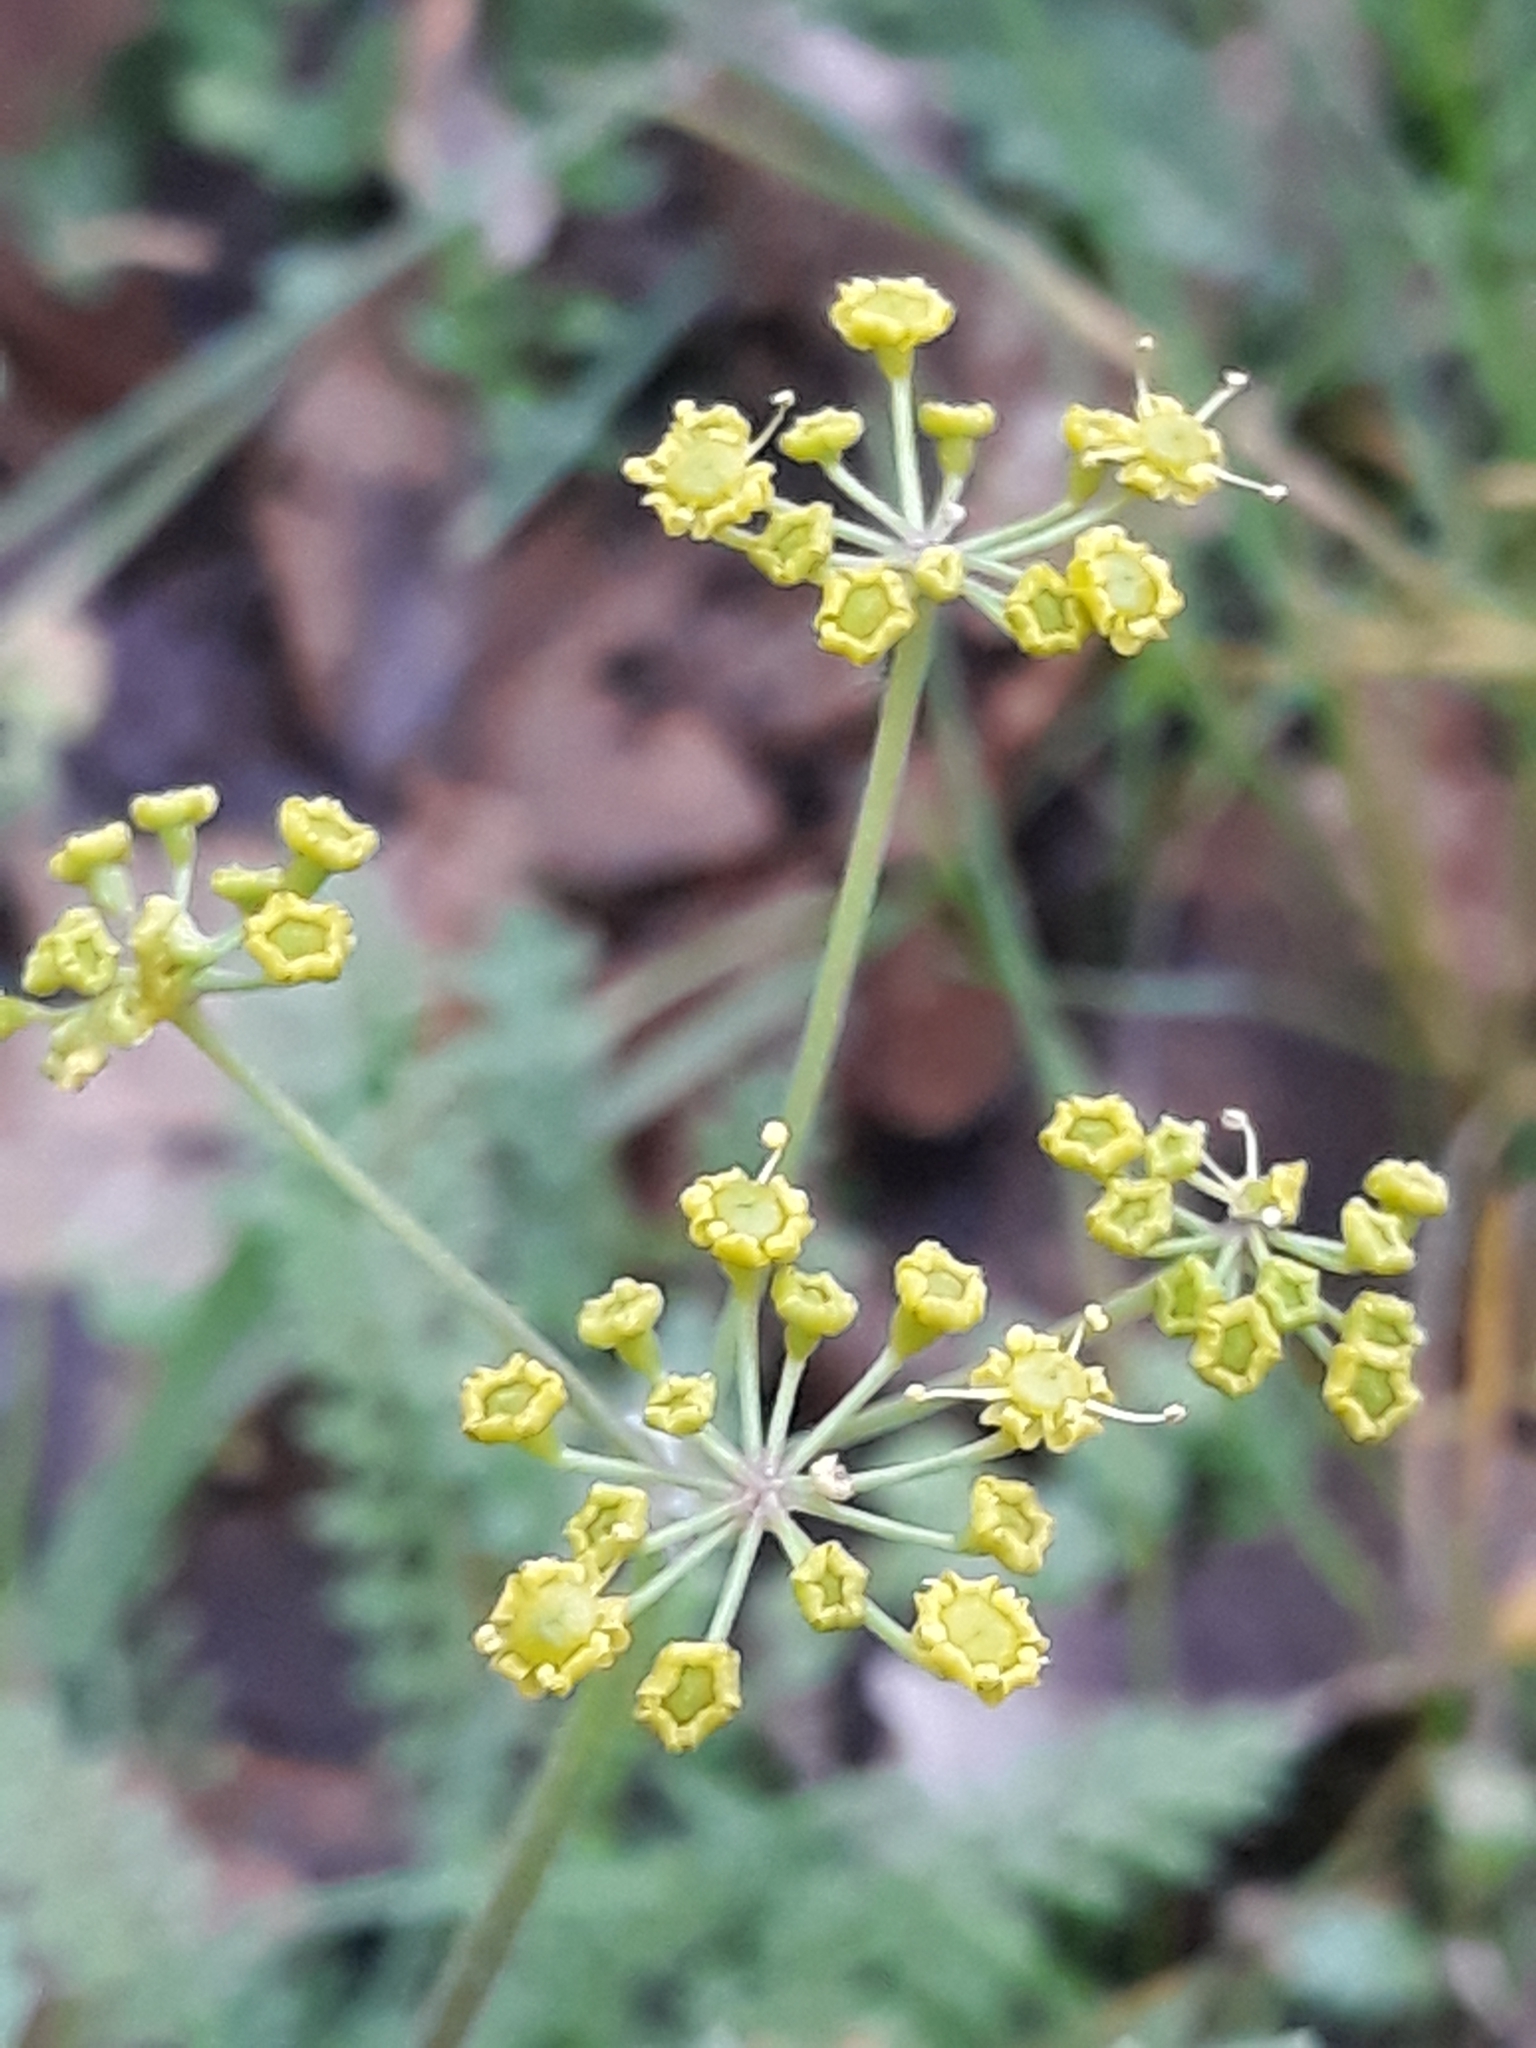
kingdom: Plantae
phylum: Tracheophyta
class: Magnoliopsida
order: Apiales
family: Apiaceae
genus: Pastinaca
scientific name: Pastinaca sativa
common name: Wild parsnip
